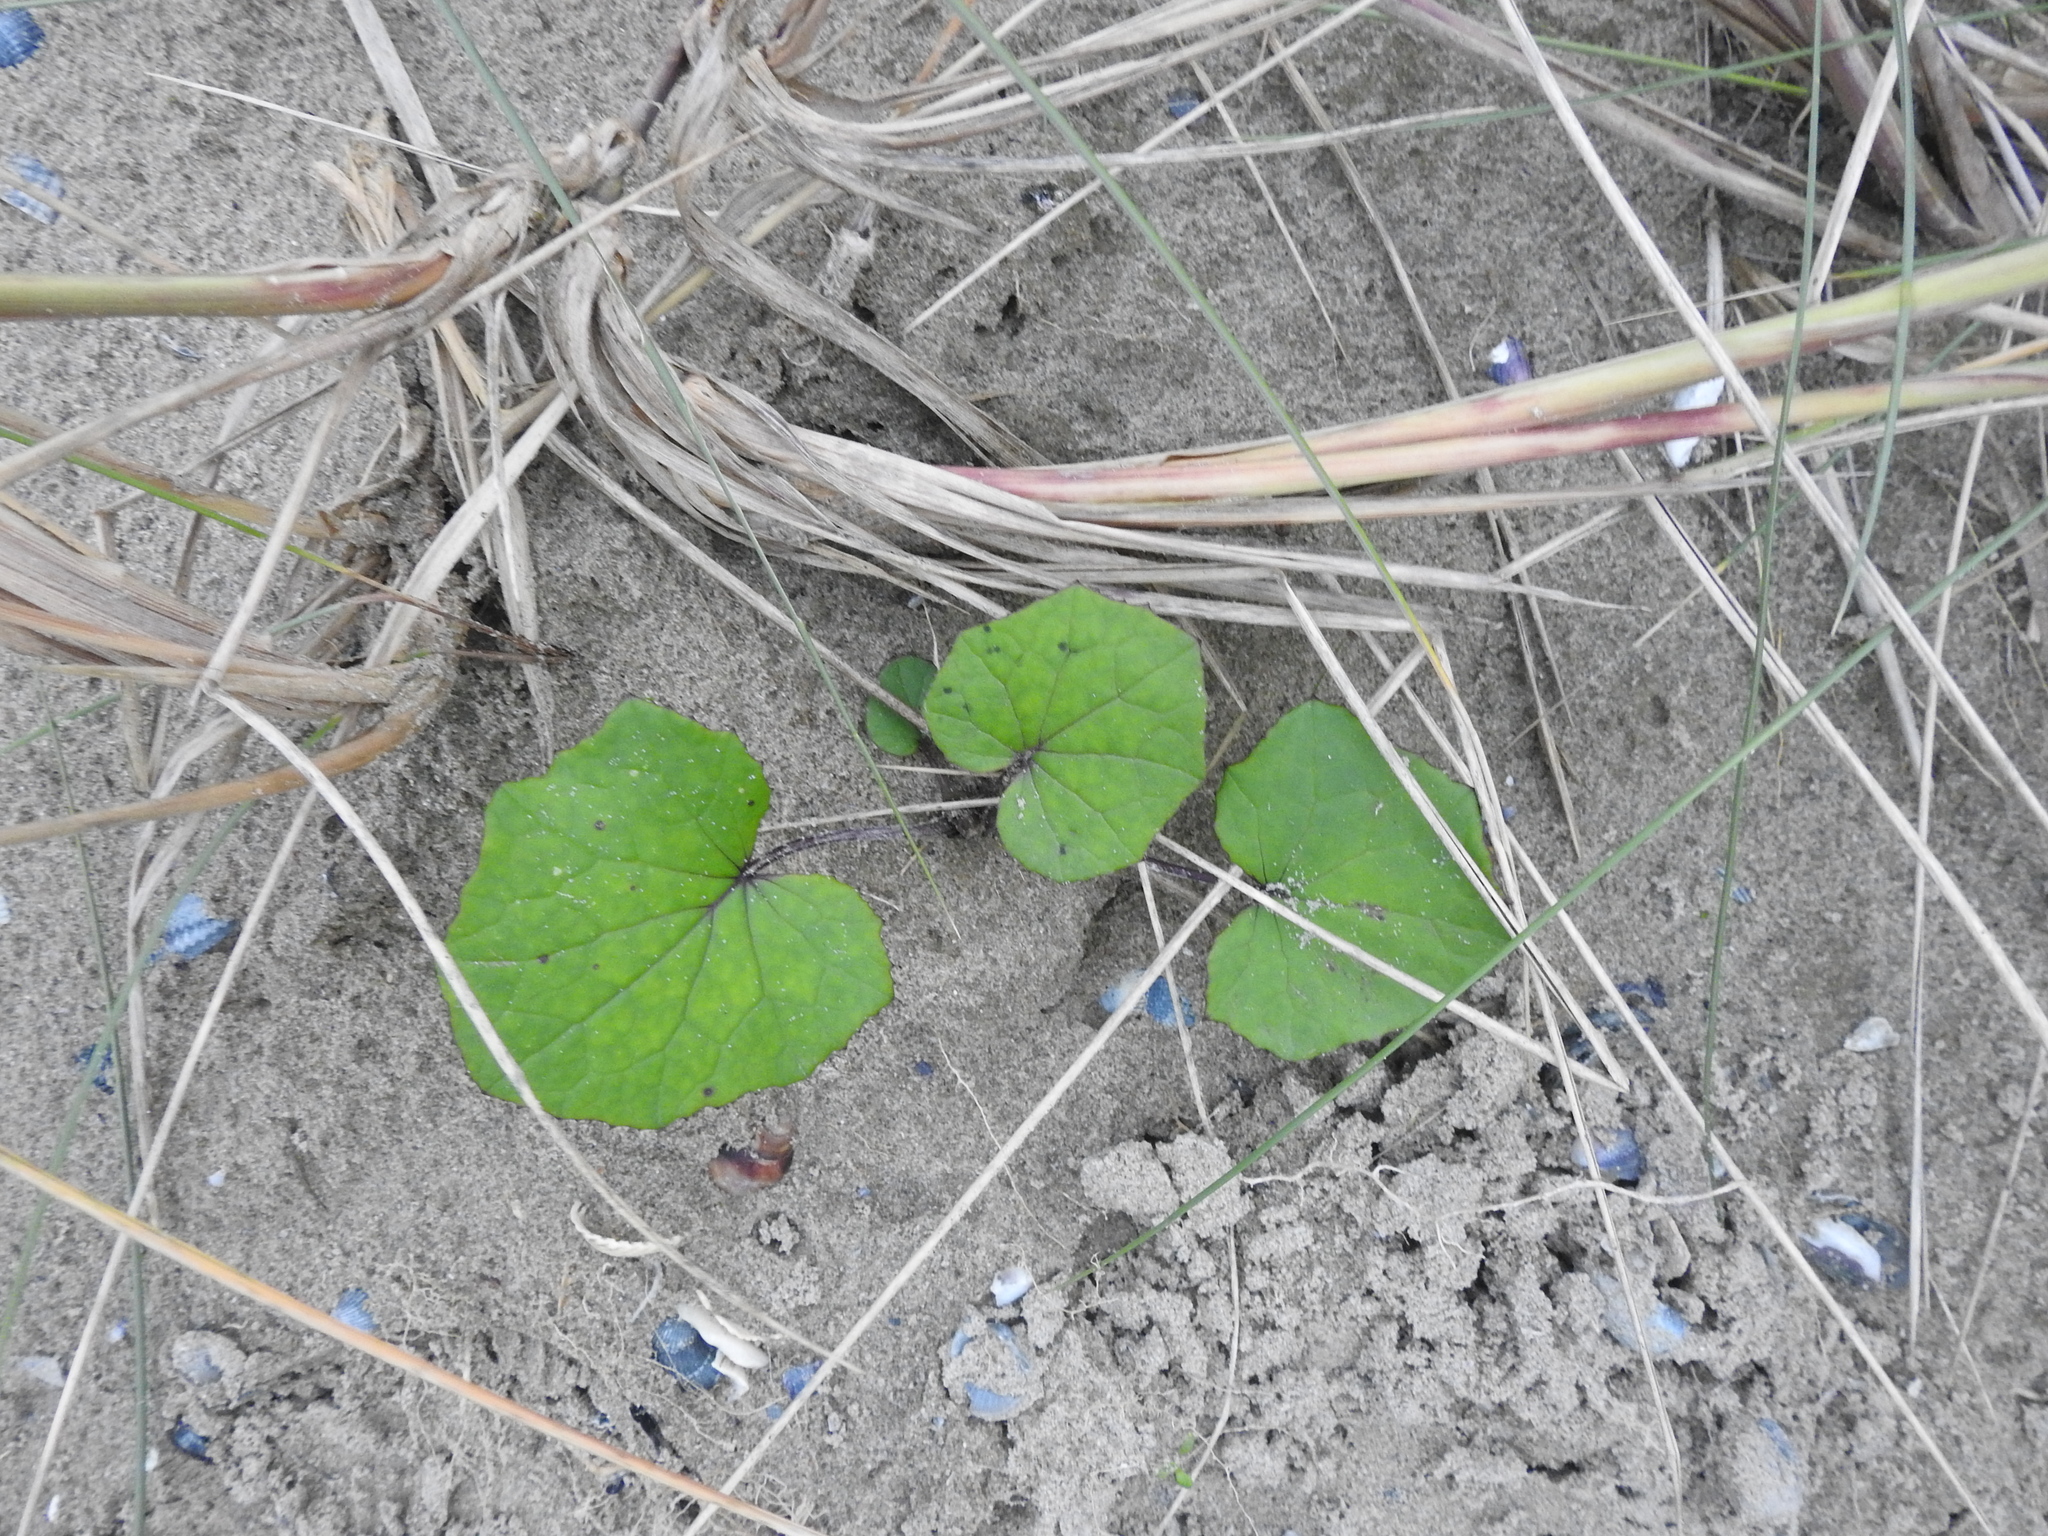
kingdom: Plantae
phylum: Tracheophyta
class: Magnoliopsida
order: Asterales
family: Asteraceae
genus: Tussilago
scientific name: Tussilago farfara
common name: Coltsfoot
